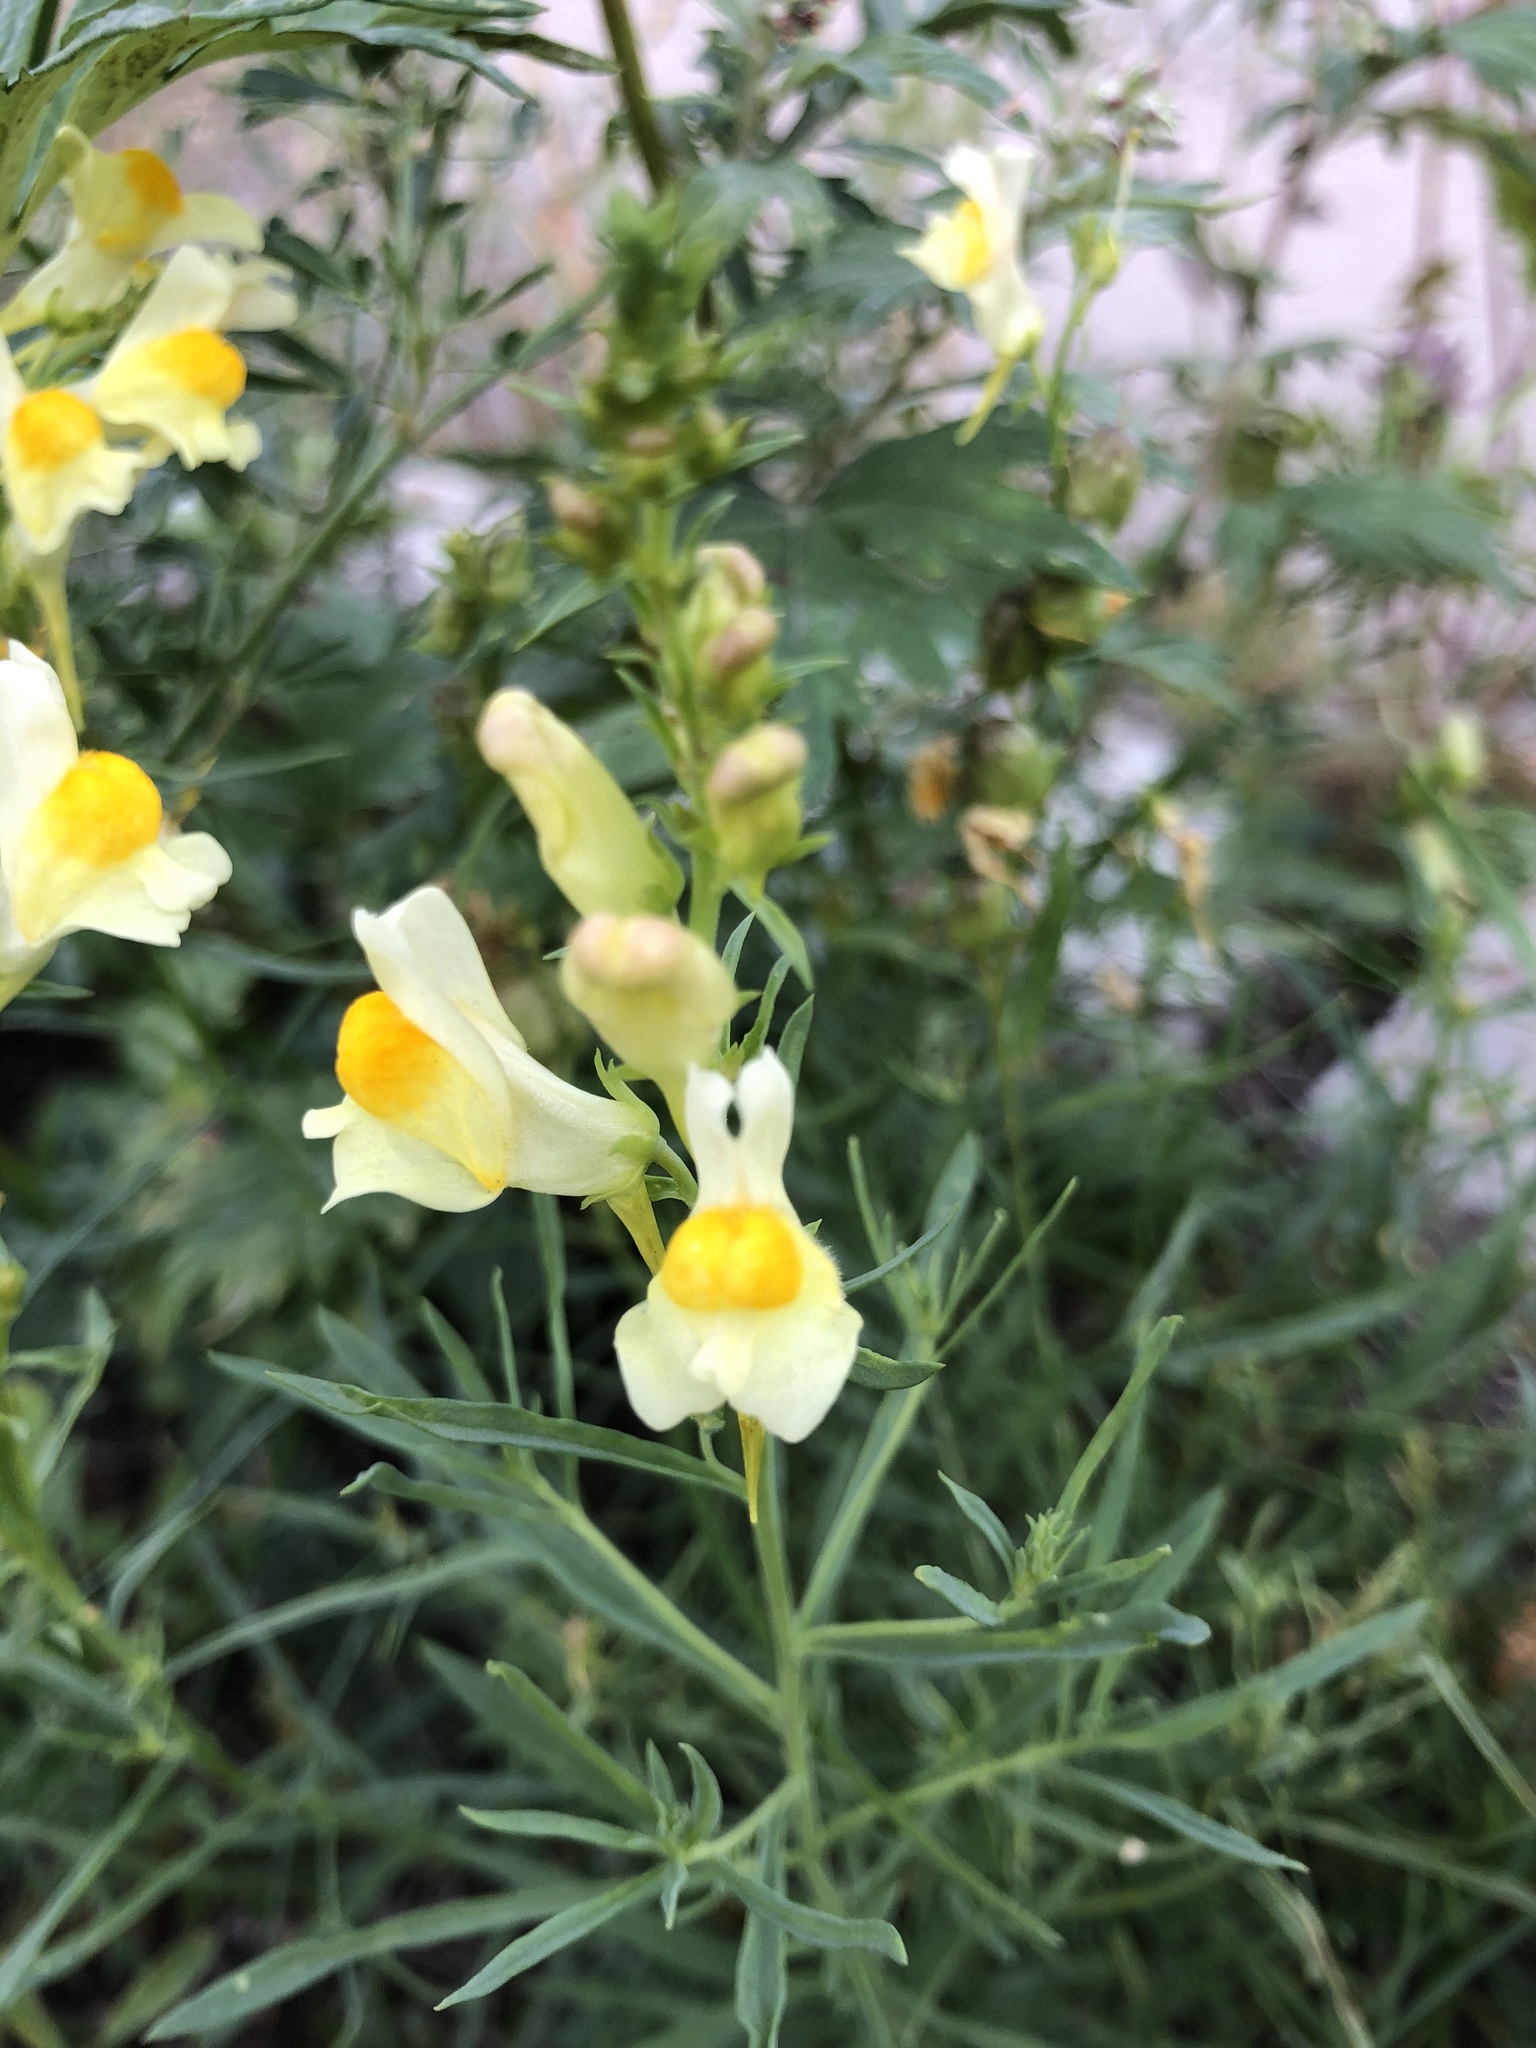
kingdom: Plantae
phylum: Tracheophyta
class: Magnoliopsida
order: Lamiales
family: Plantaginaceae
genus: Linaria
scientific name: Linaria vulgaris
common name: Butter and eggs
